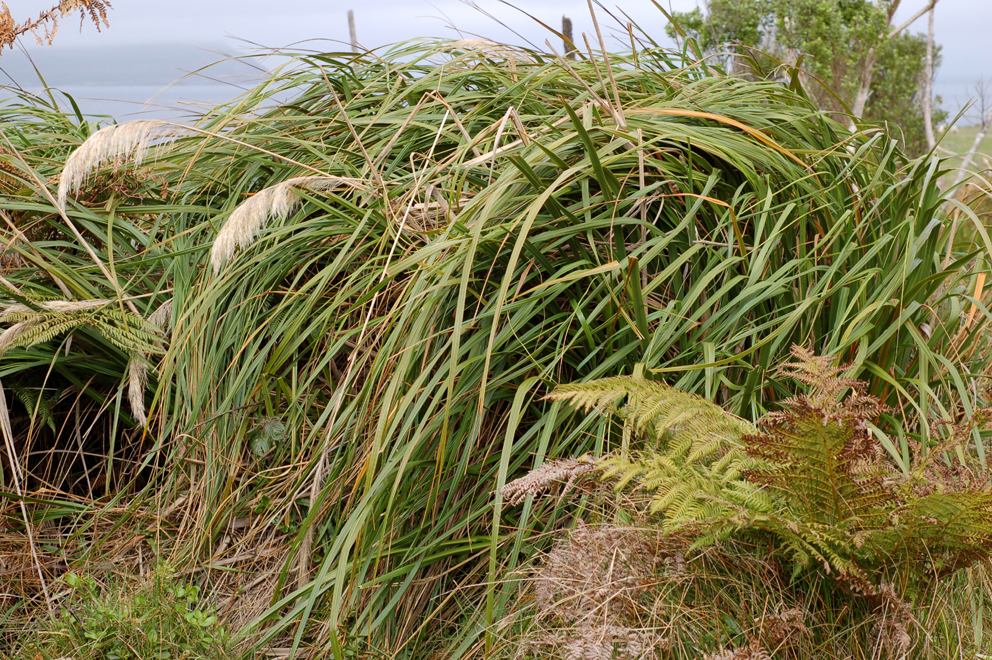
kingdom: Plantae
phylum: Tracheophyta
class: Liliopsida
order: Poales
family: Poaceae
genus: Austroderia
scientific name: Austroderia turbaria
